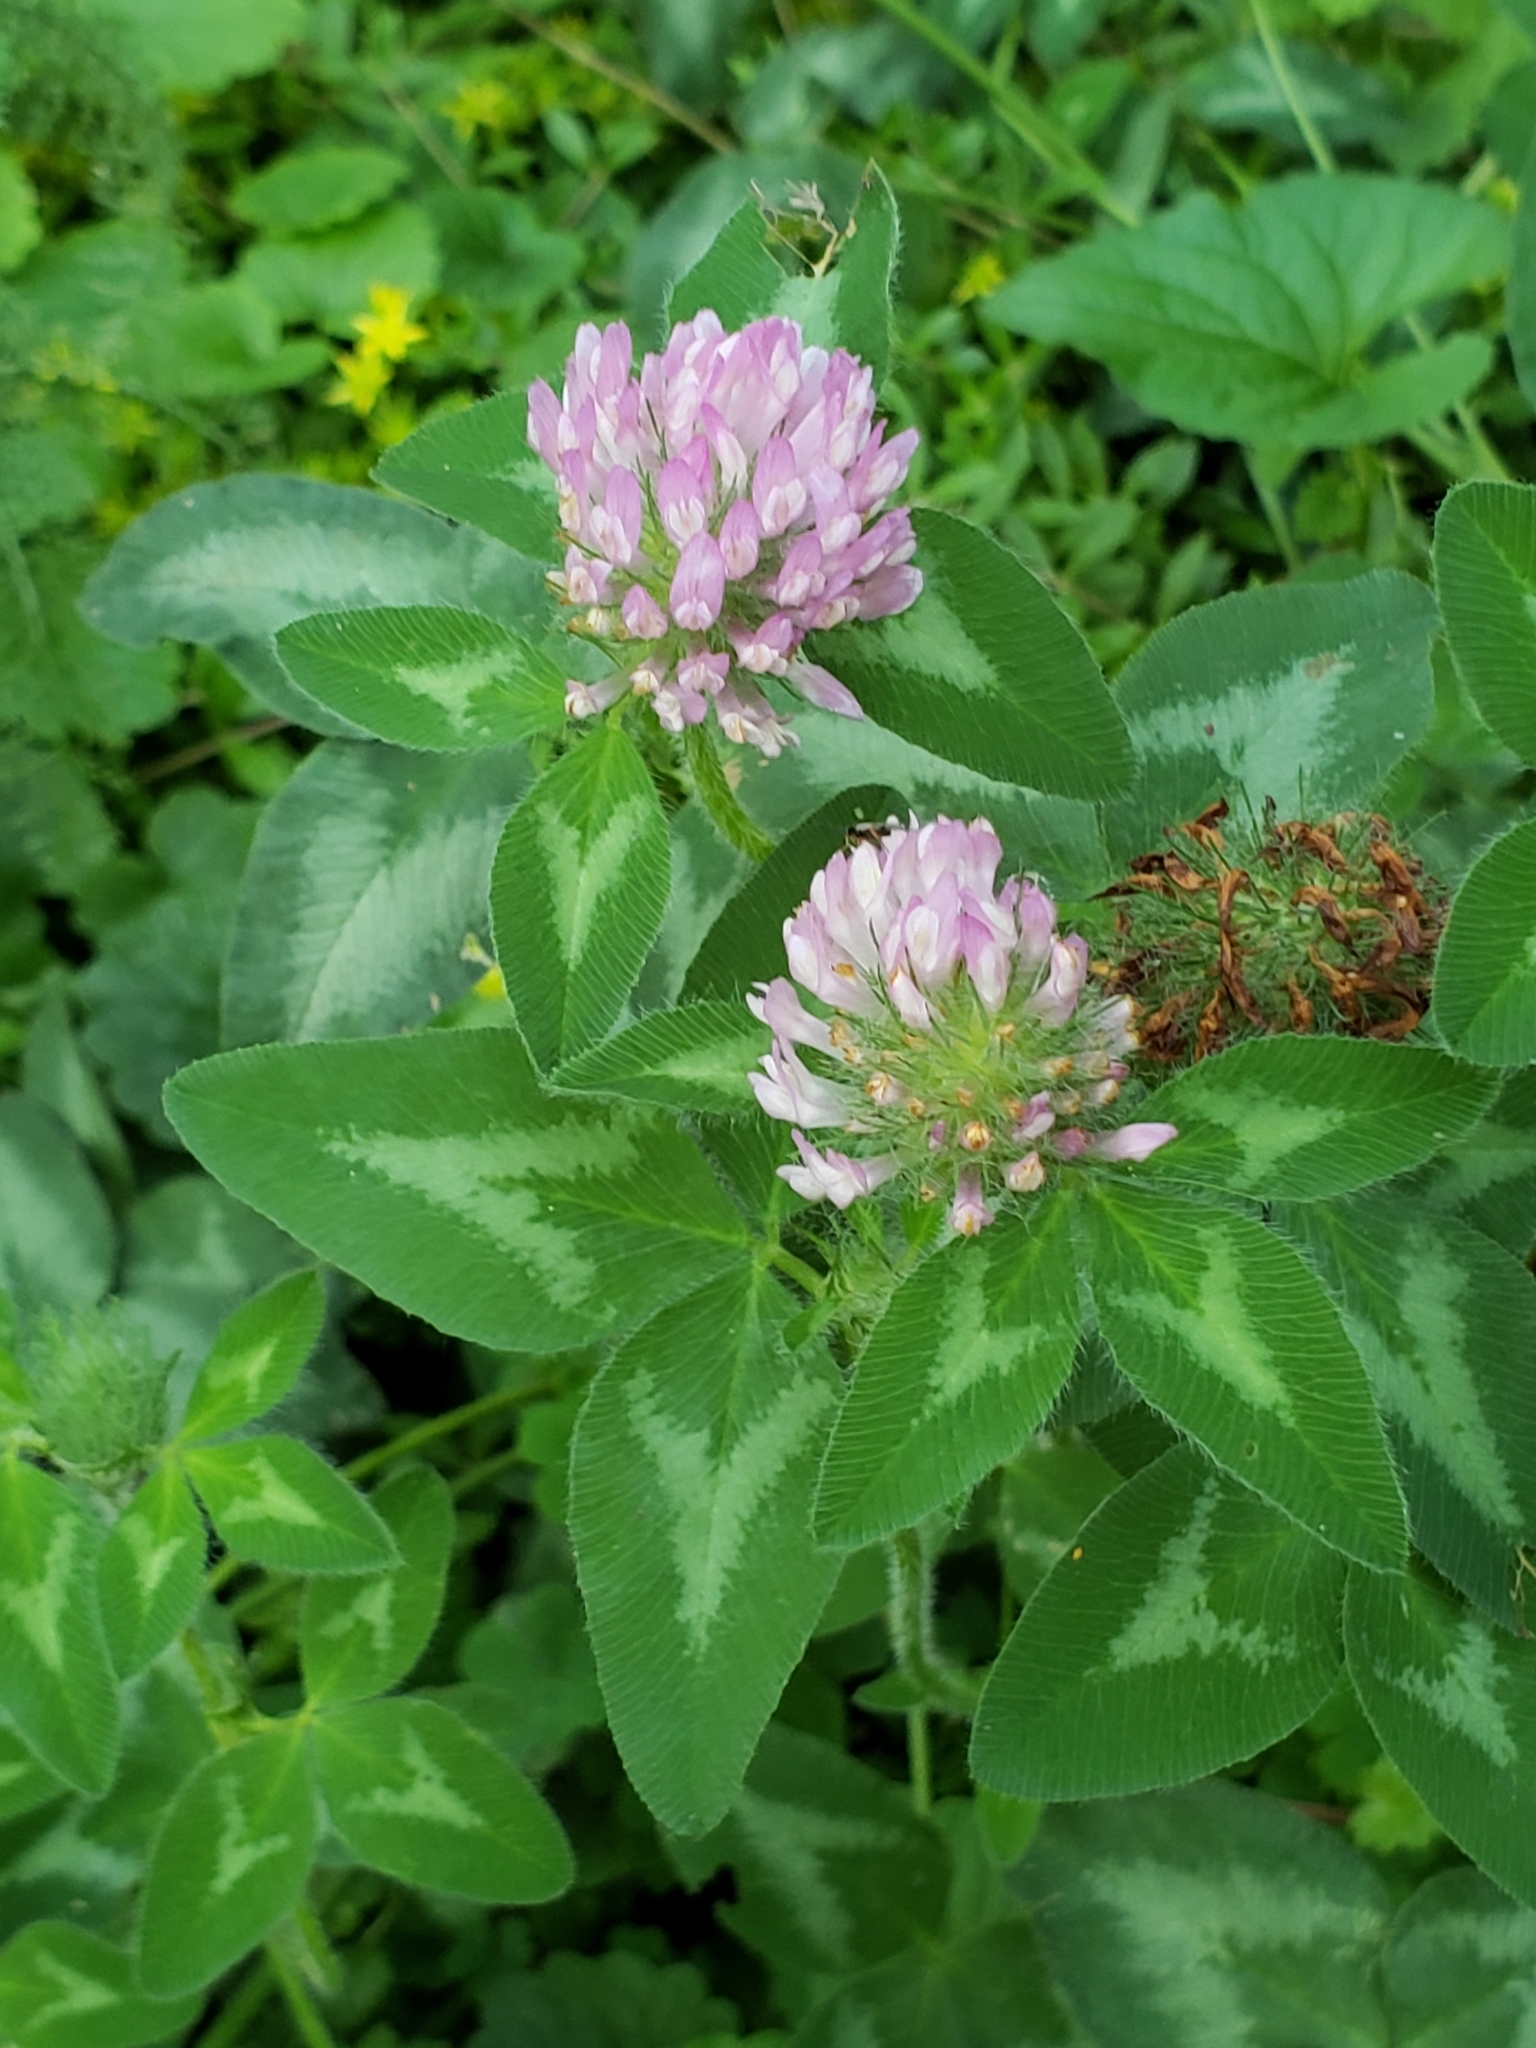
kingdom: Plantae
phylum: Tracheophyta
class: Magnoliopsida
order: Fabales
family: Fabaceae
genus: Trifolium
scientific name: Trifolium pratense
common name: Red clover
